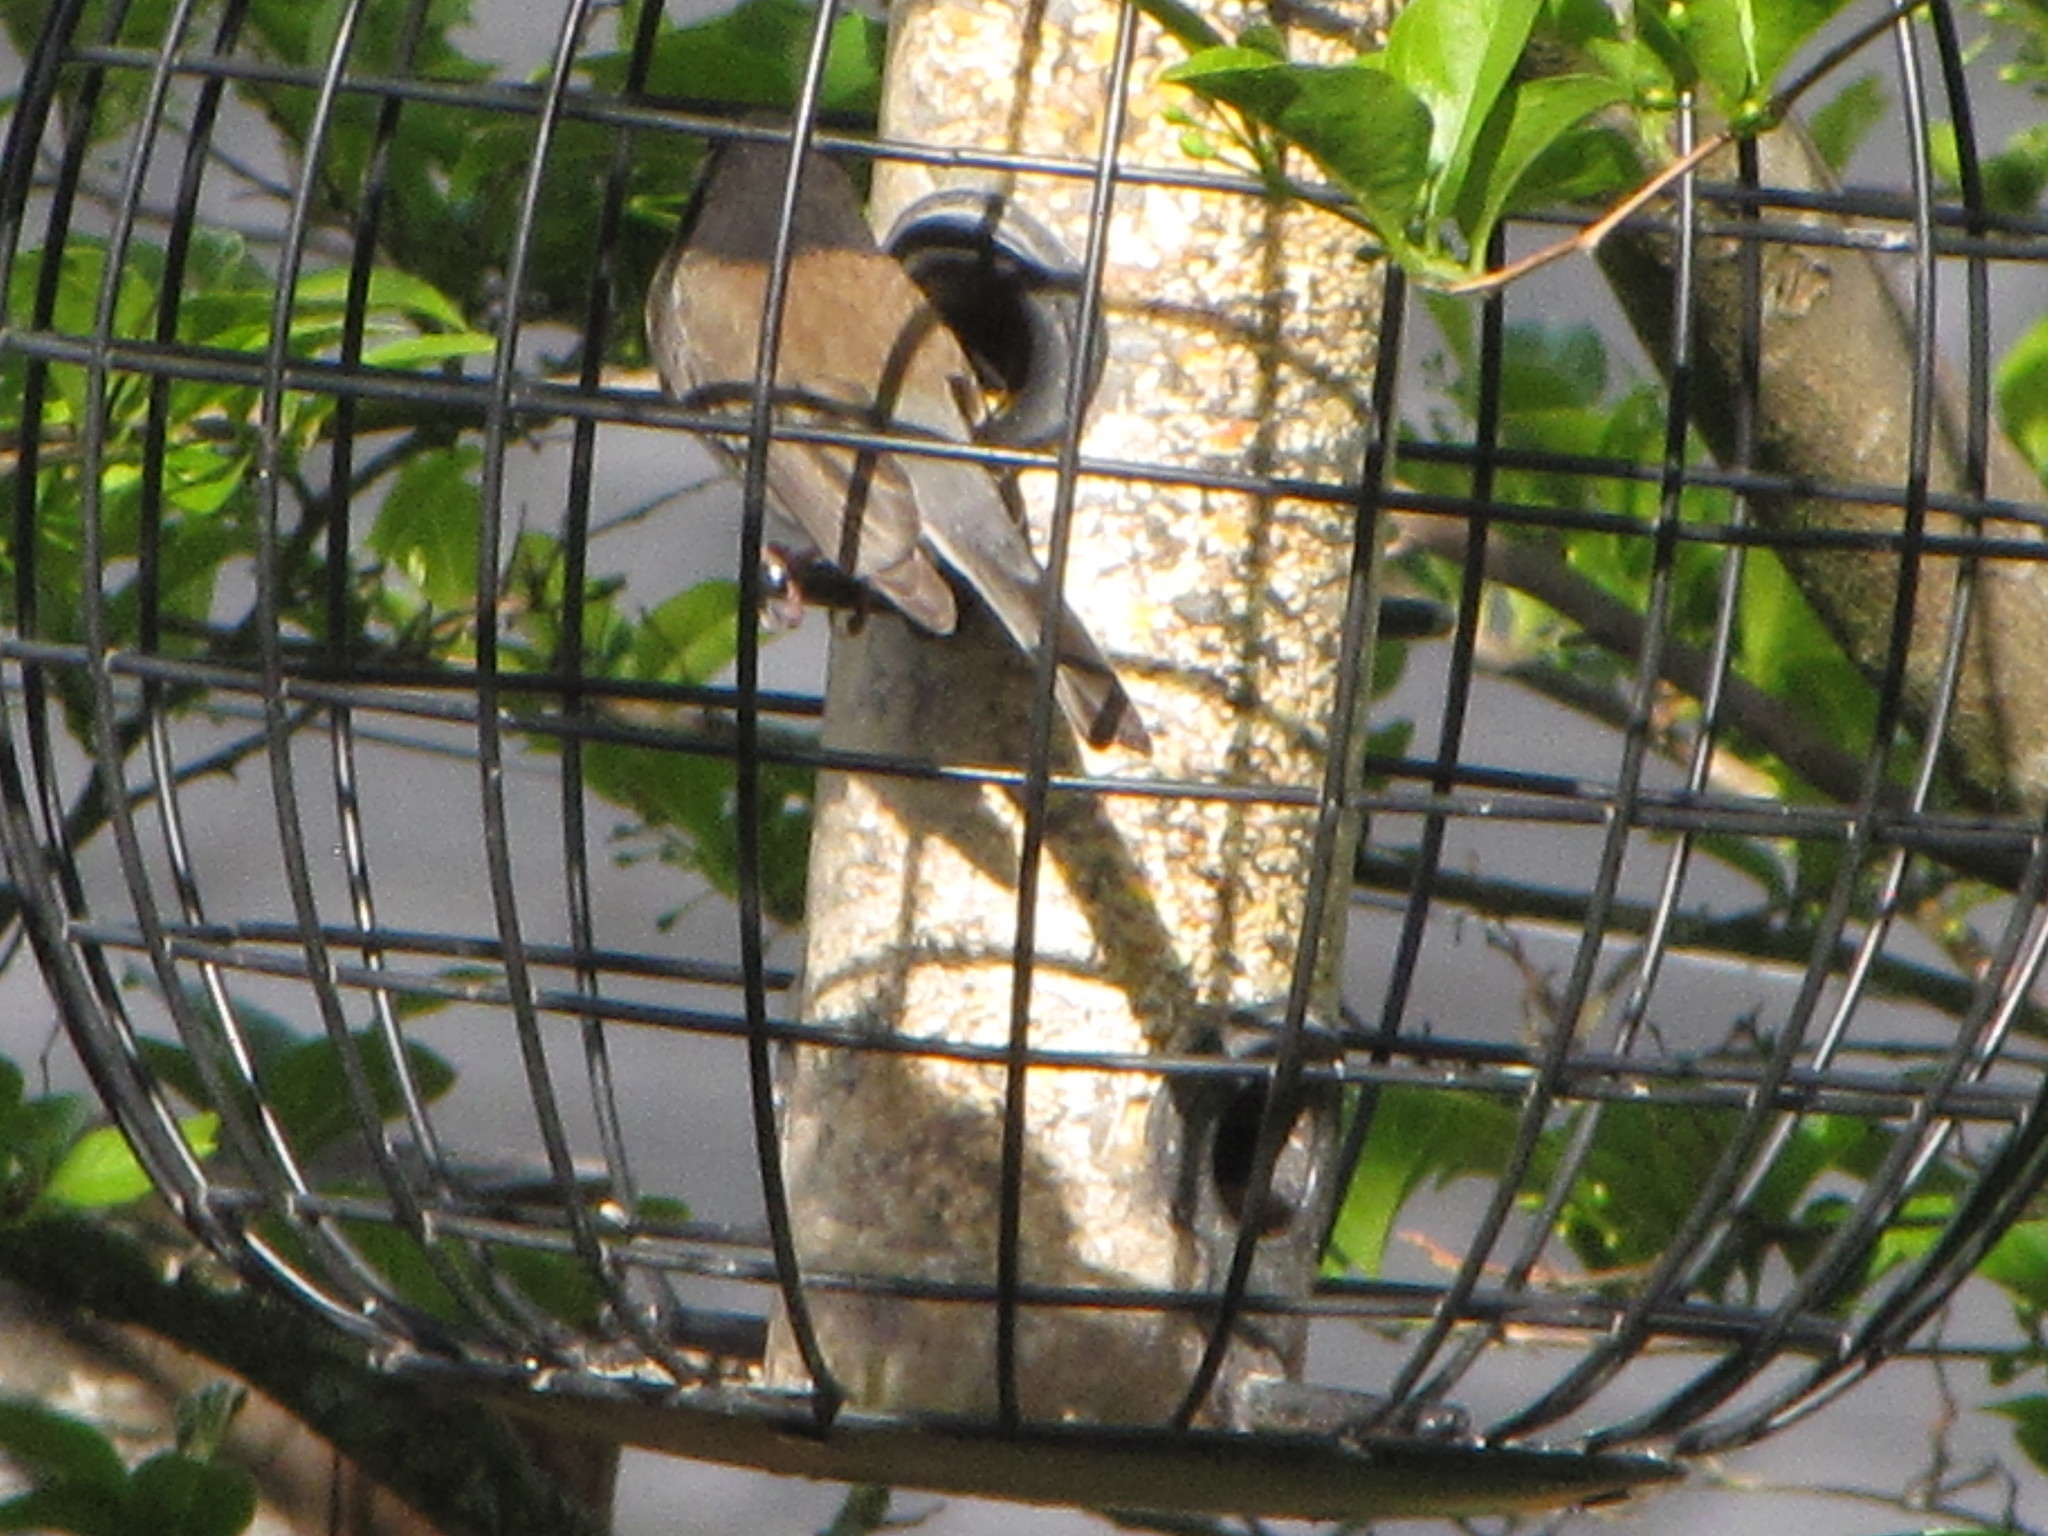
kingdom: Animalia
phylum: Chordata
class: Aves
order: Passeriformes
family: Passerellidae
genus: Junco
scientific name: Junco hyemalis
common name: Dark-eyed junco
